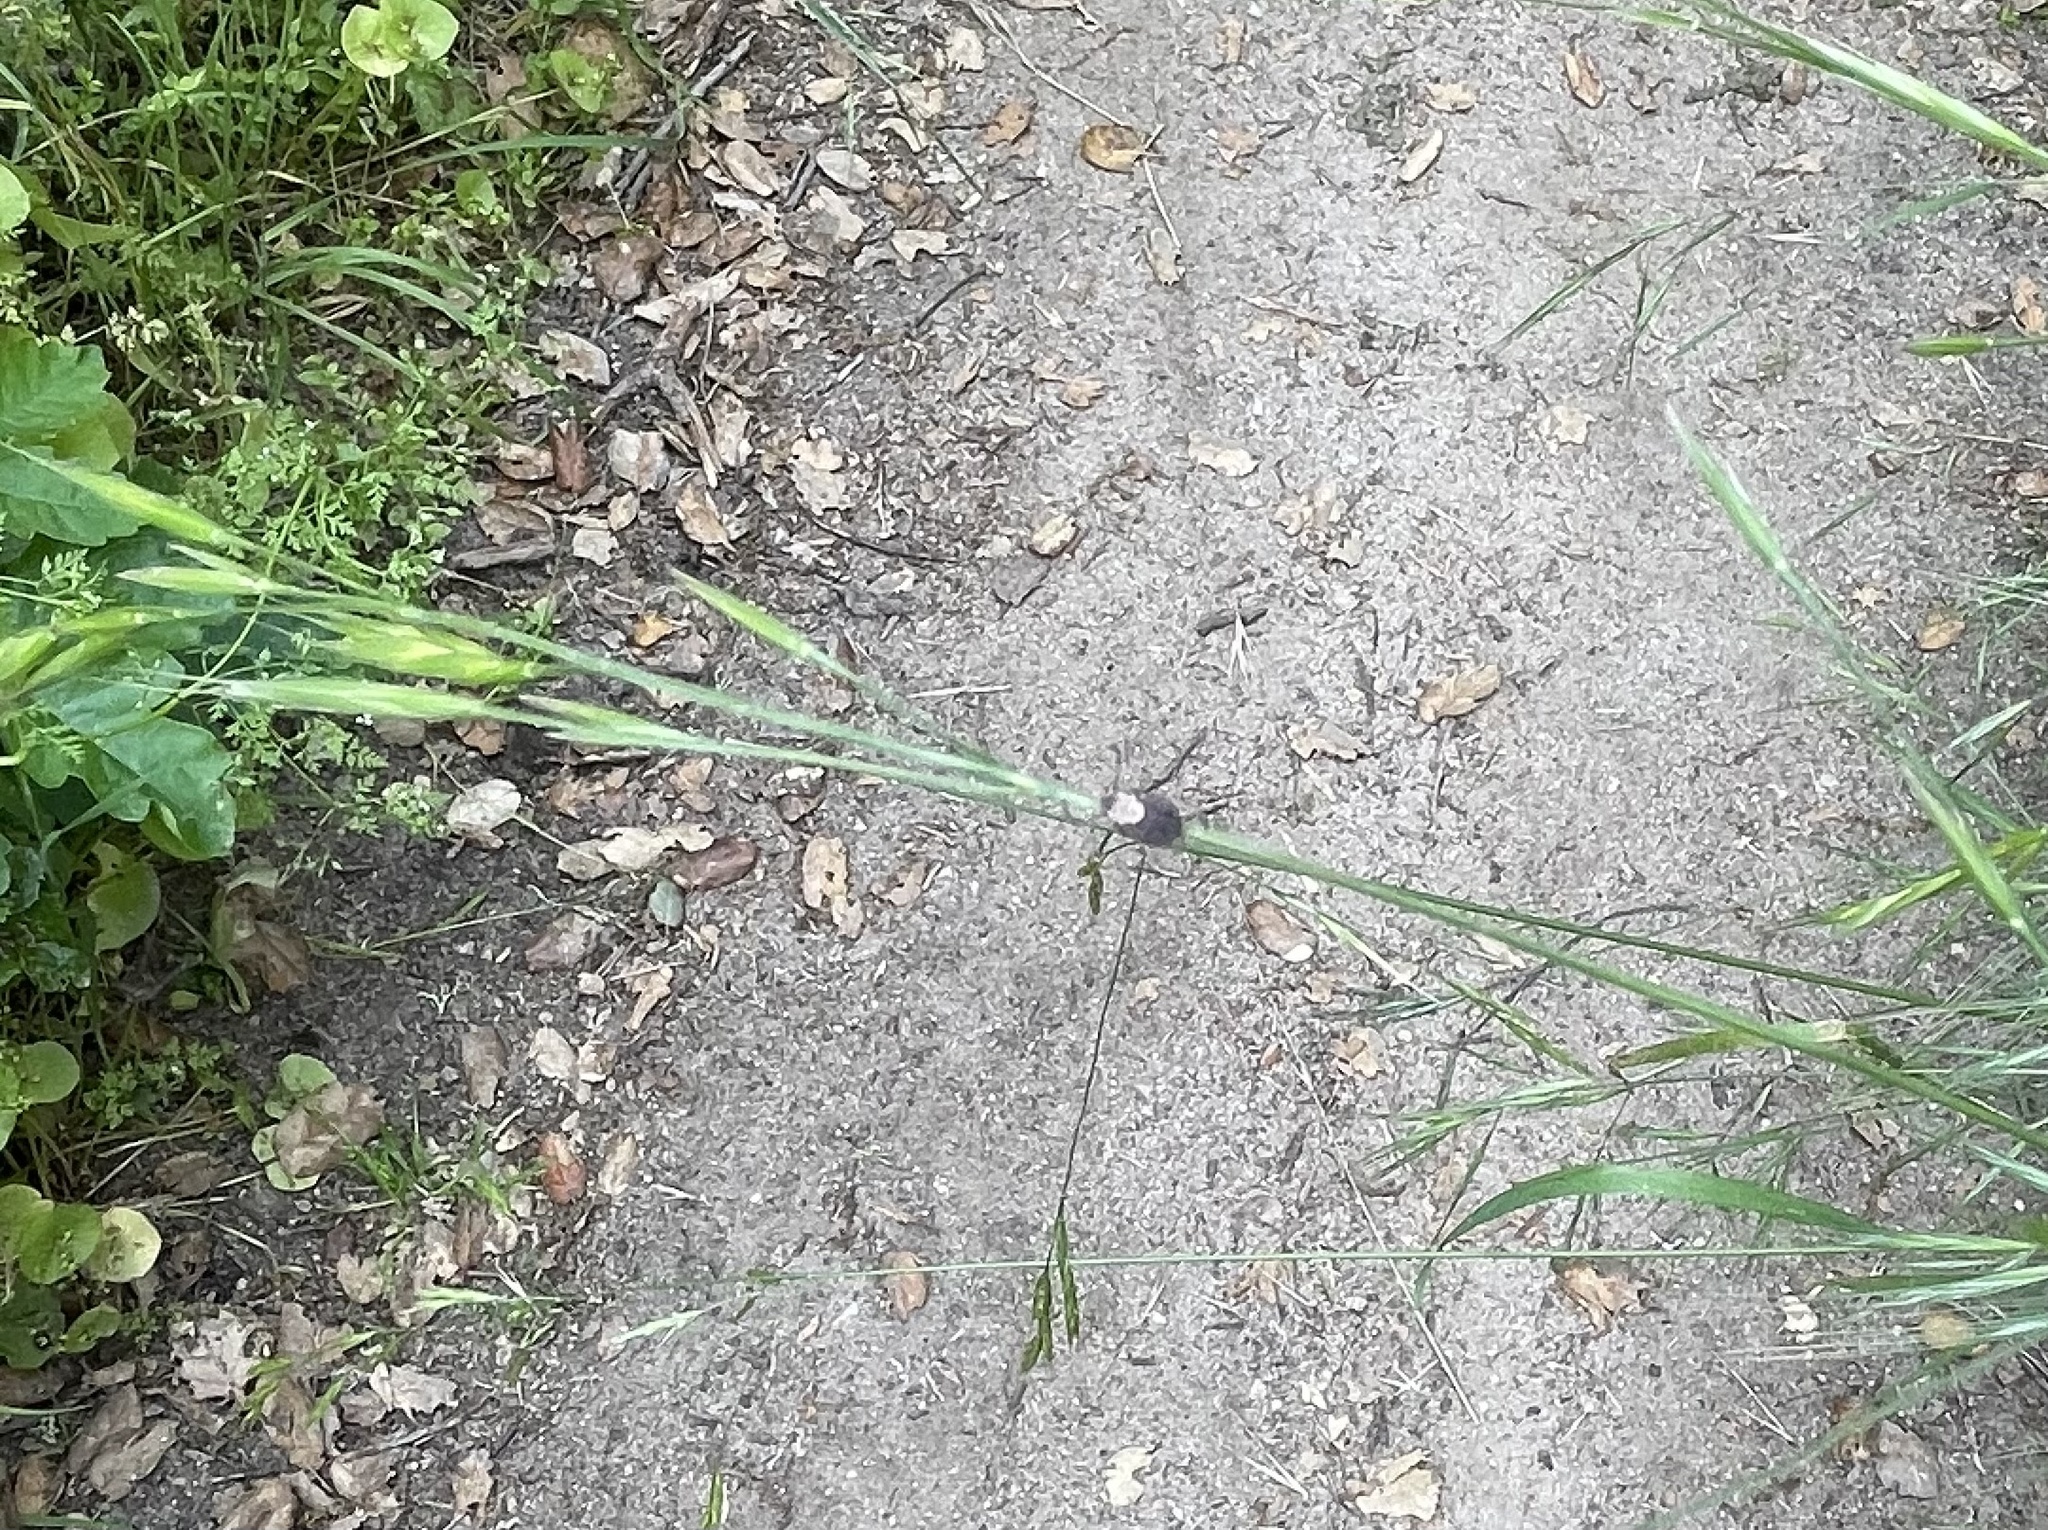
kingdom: Animalia
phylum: Arthropoda
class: Arachnida
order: Ixodida
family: Ixodidae
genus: Dermacentor
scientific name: Dermacentor occidentalis
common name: Net tick
